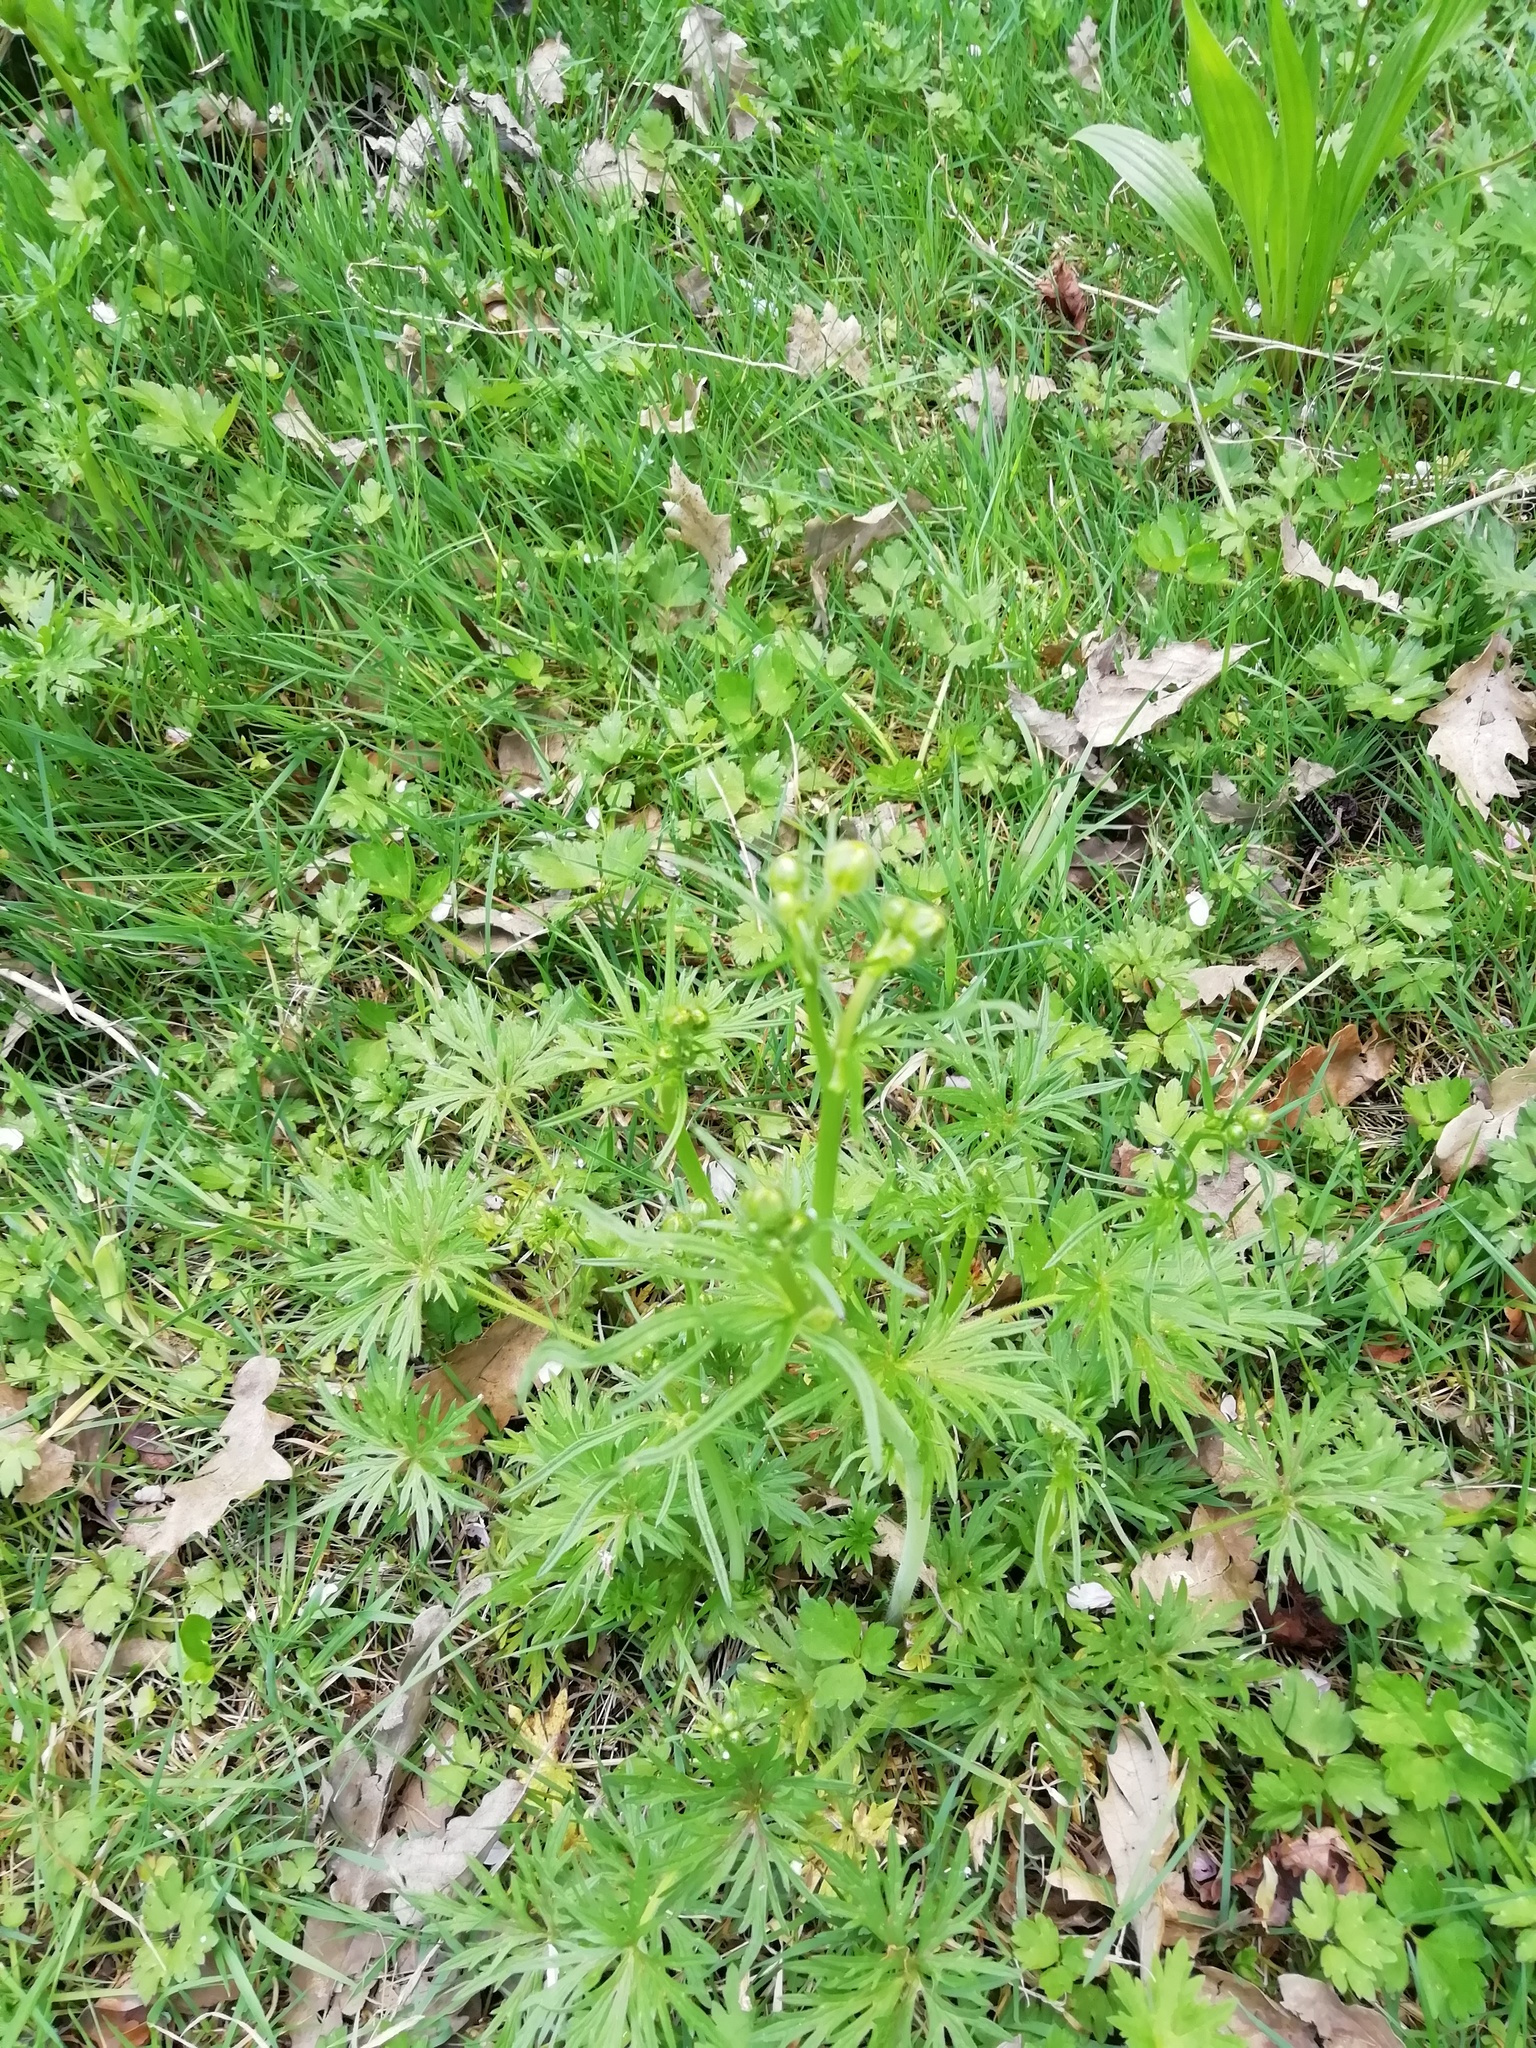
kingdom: Plantae
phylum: Tracheophyta
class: Magnoliopsida
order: Ranunculales
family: Ranunculaceae
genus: Ranunculus
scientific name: Ranunculus acris
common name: Meadow buttercup
